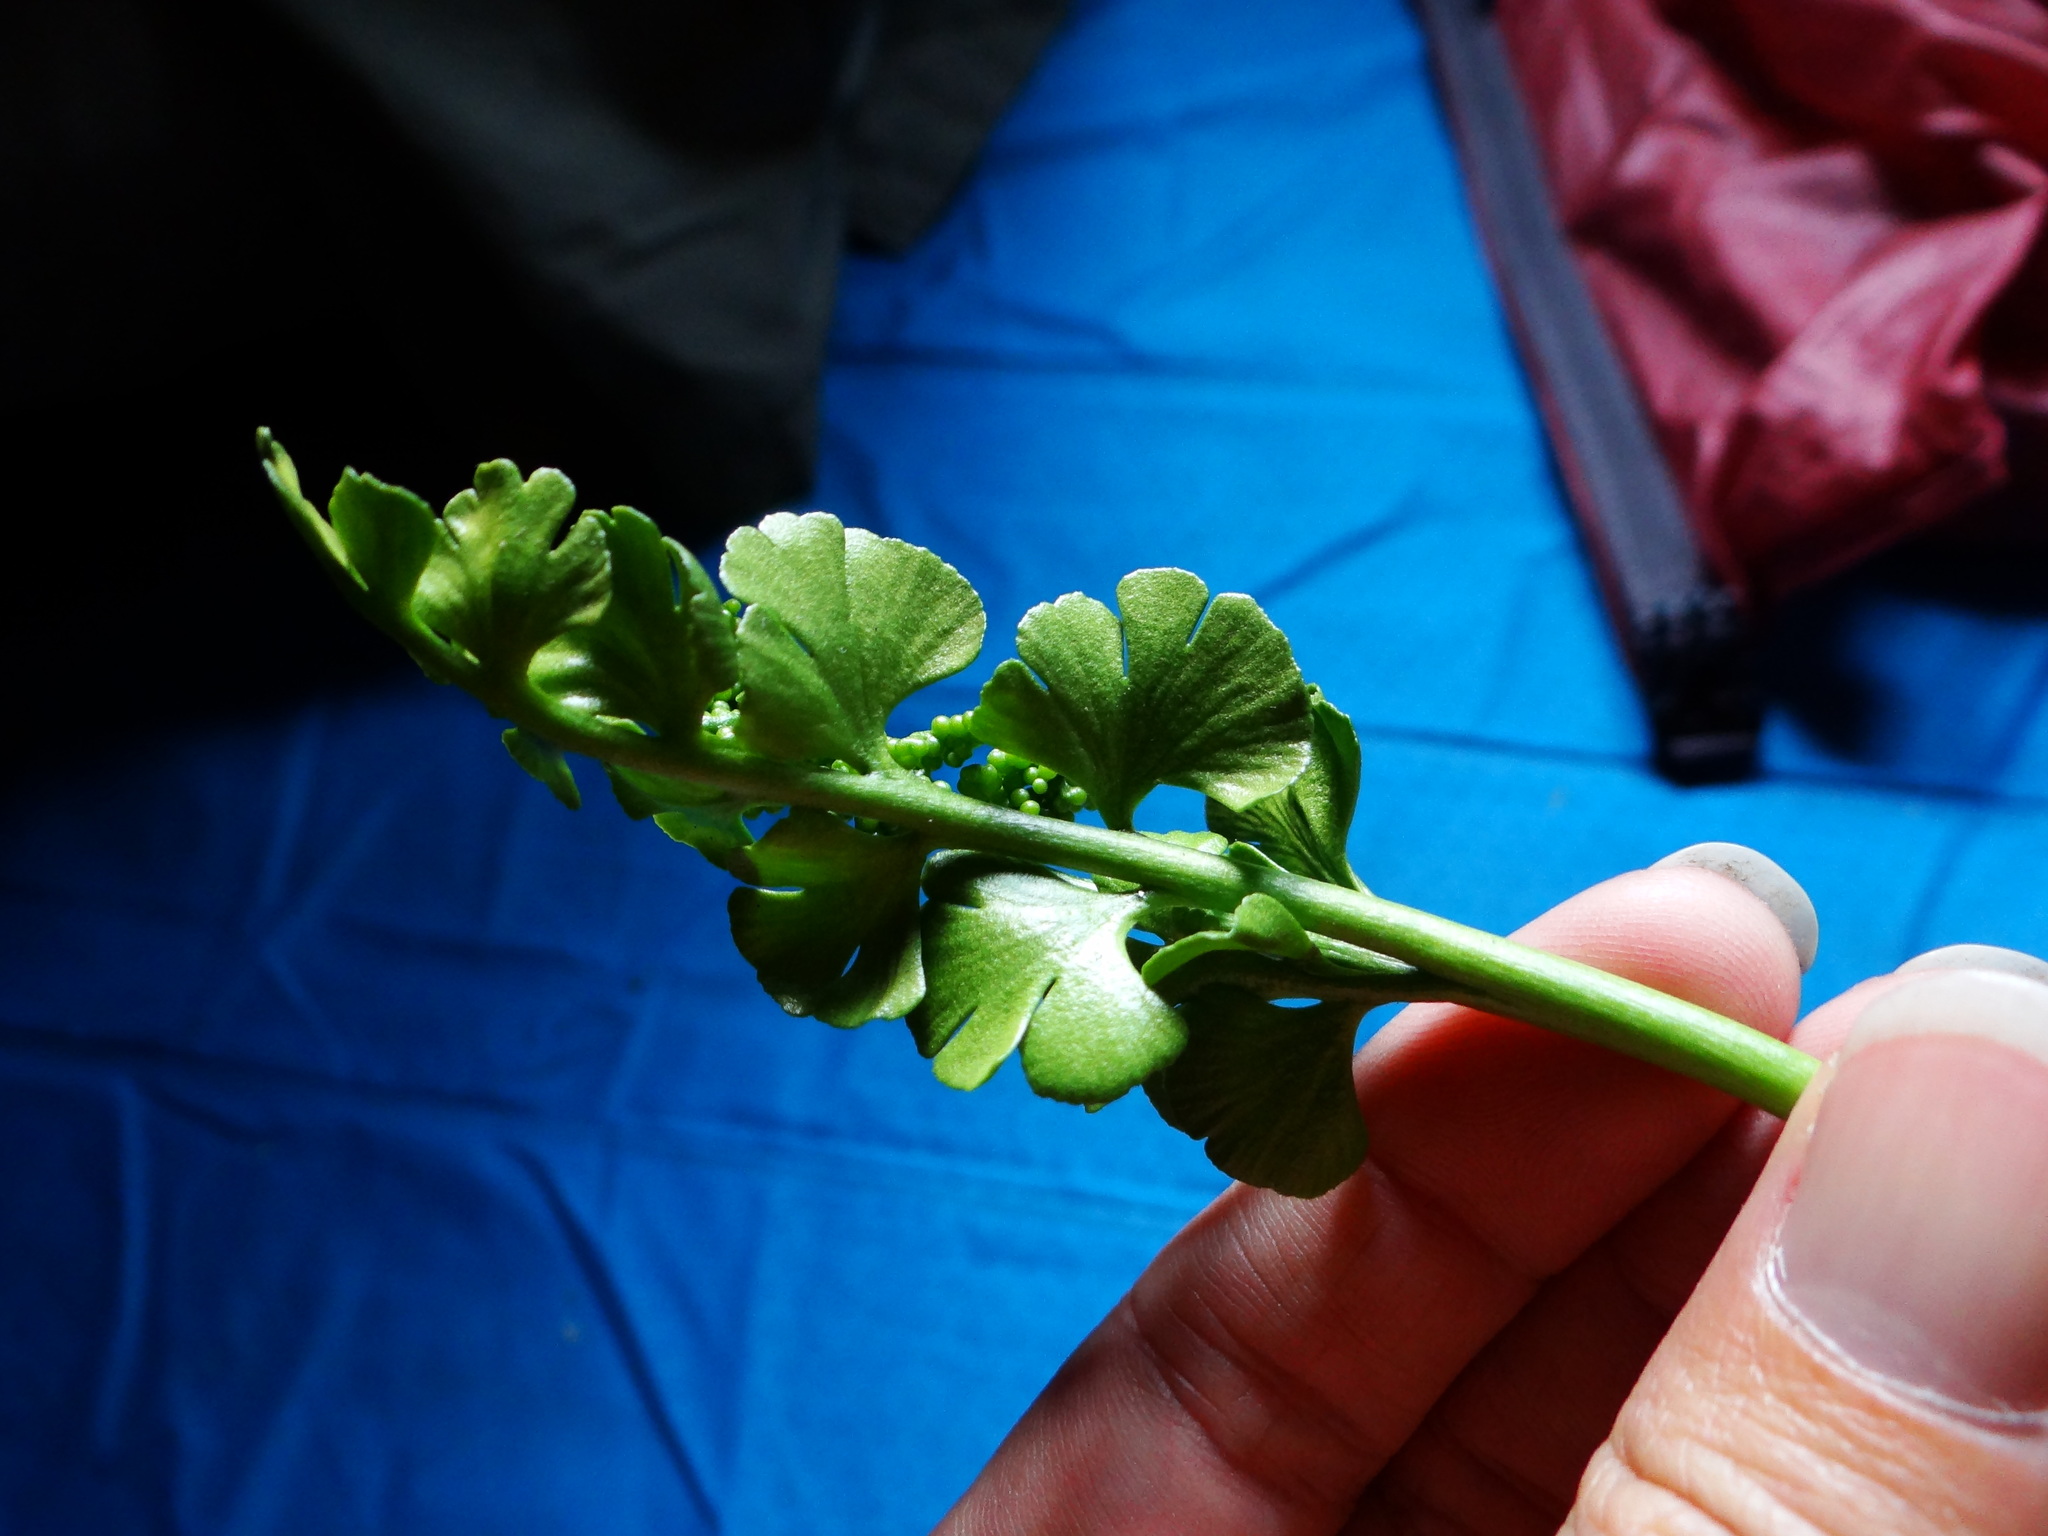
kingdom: Plantae
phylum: Tracheophyta
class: Polypodiopsida
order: Ophioglossales
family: Ophioglossaceae
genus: Botrychium
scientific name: Botrychium lunaria
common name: Moonwort
